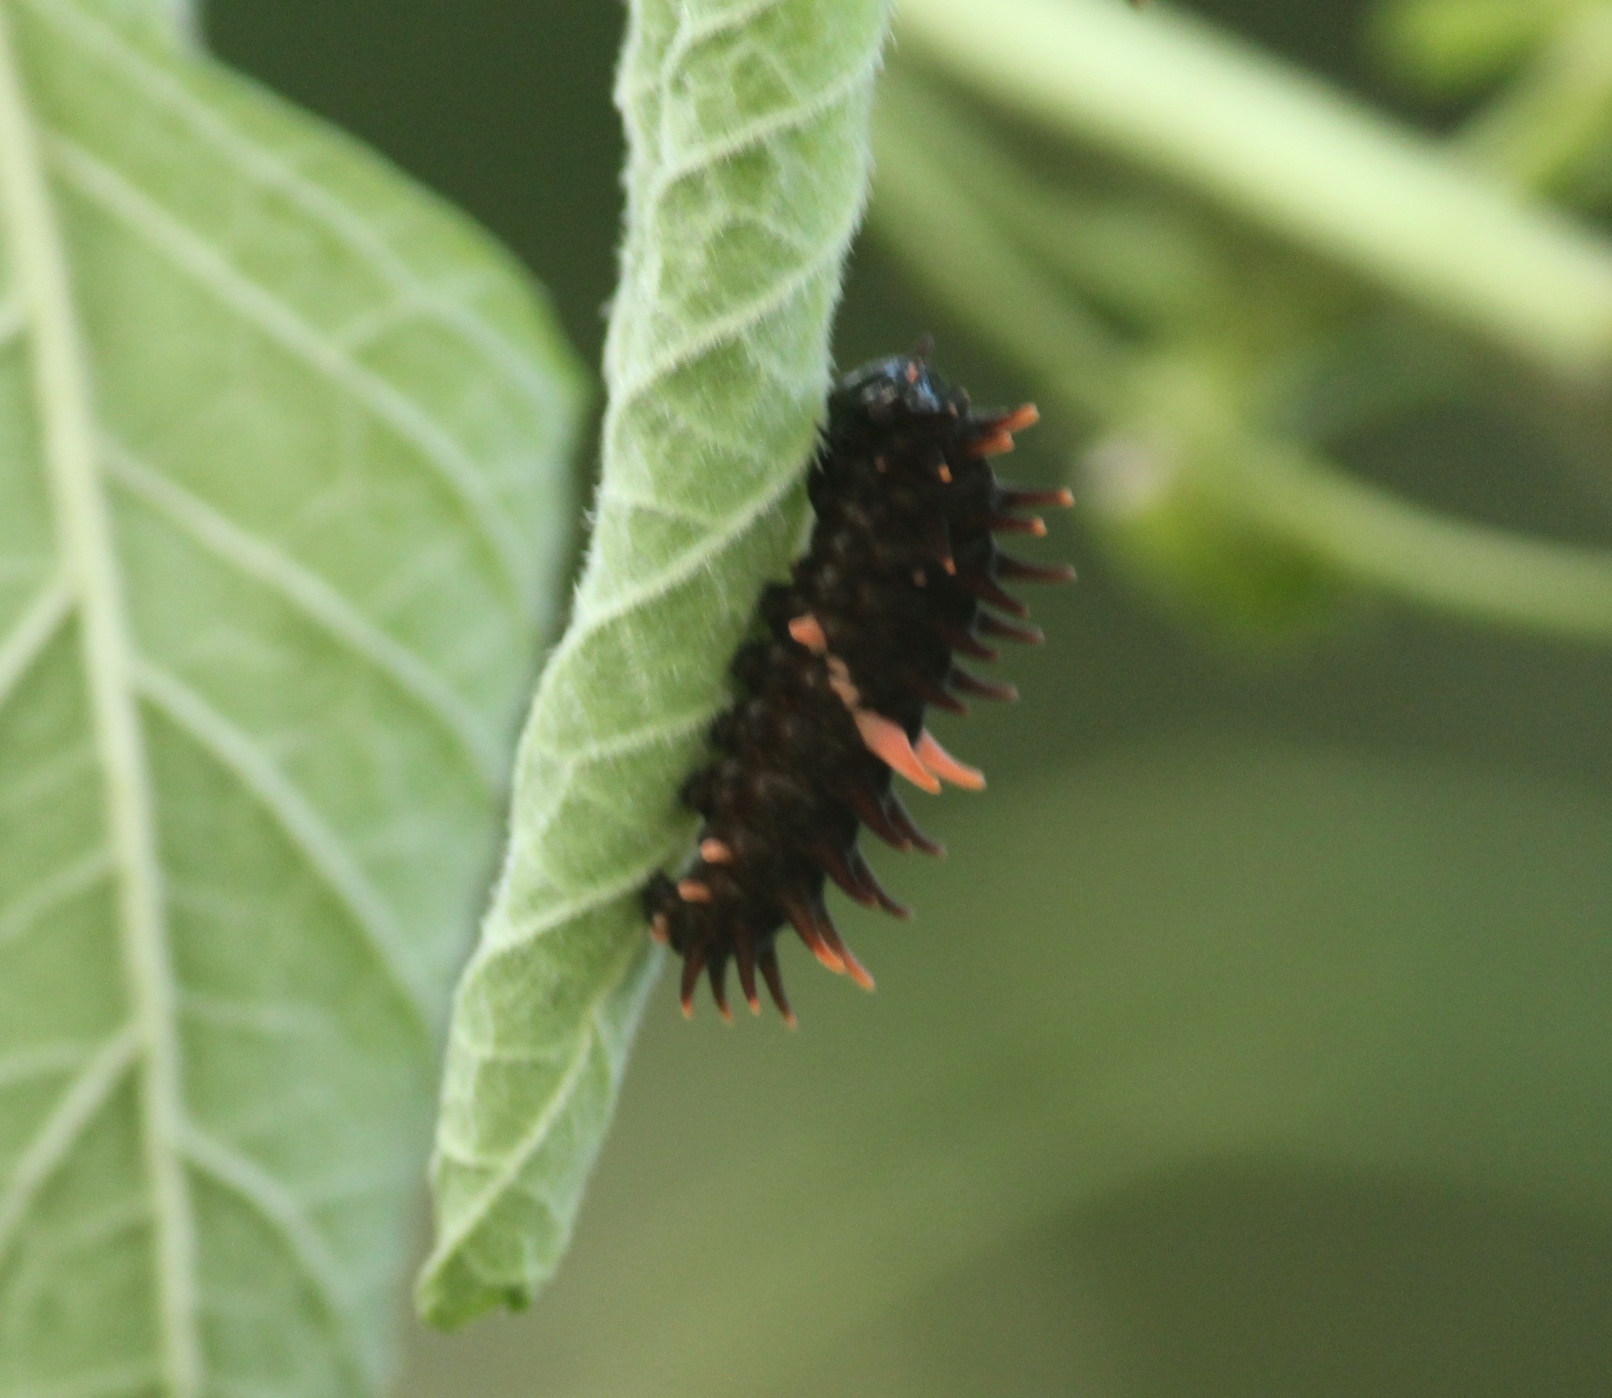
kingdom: Animalia
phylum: Arthropoda
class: Insecta
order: Lepidoptera
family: Papilionidae
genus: Troides
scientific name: Troides minos
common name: Malabar birdwing
